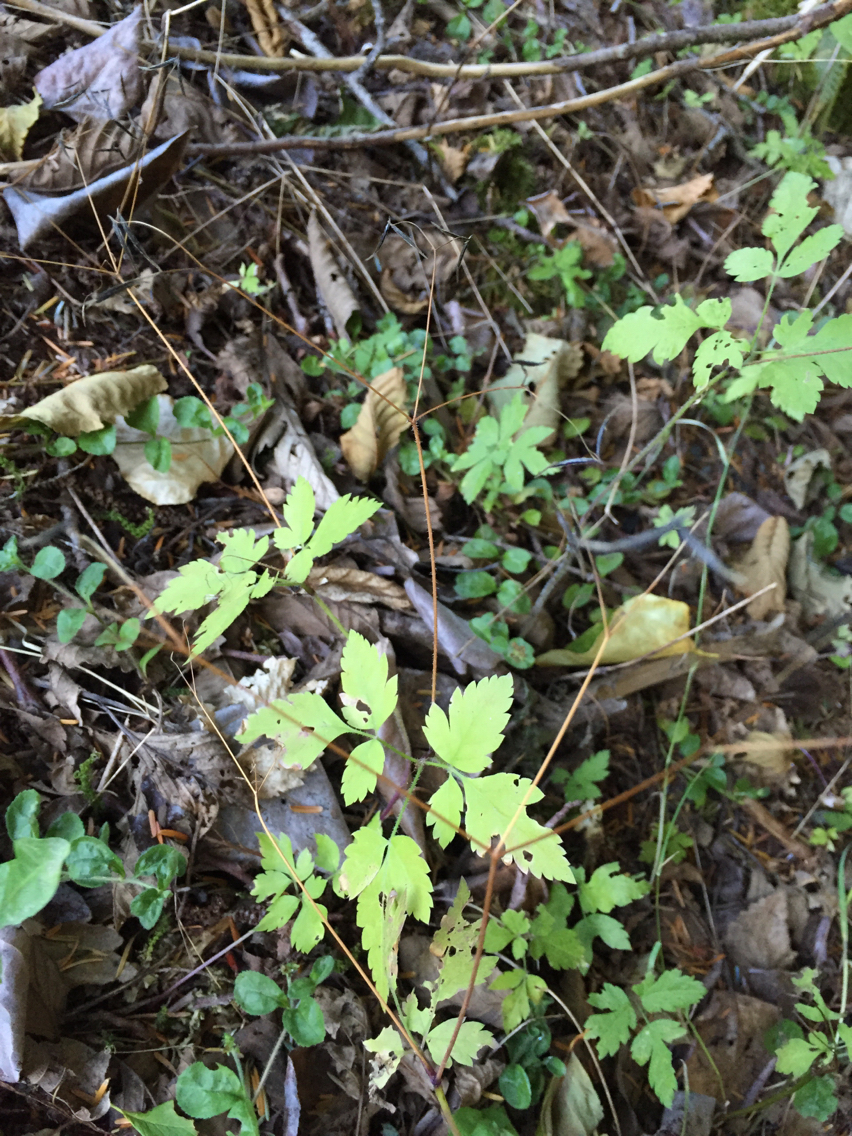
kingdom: Plantae
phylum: Tracheophyta
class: Magnoliopsida
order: Apiales
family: Apiaceae
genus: Osmorhiza
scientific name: Osmorhiza berteroi
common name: Mountain sweet cicely
